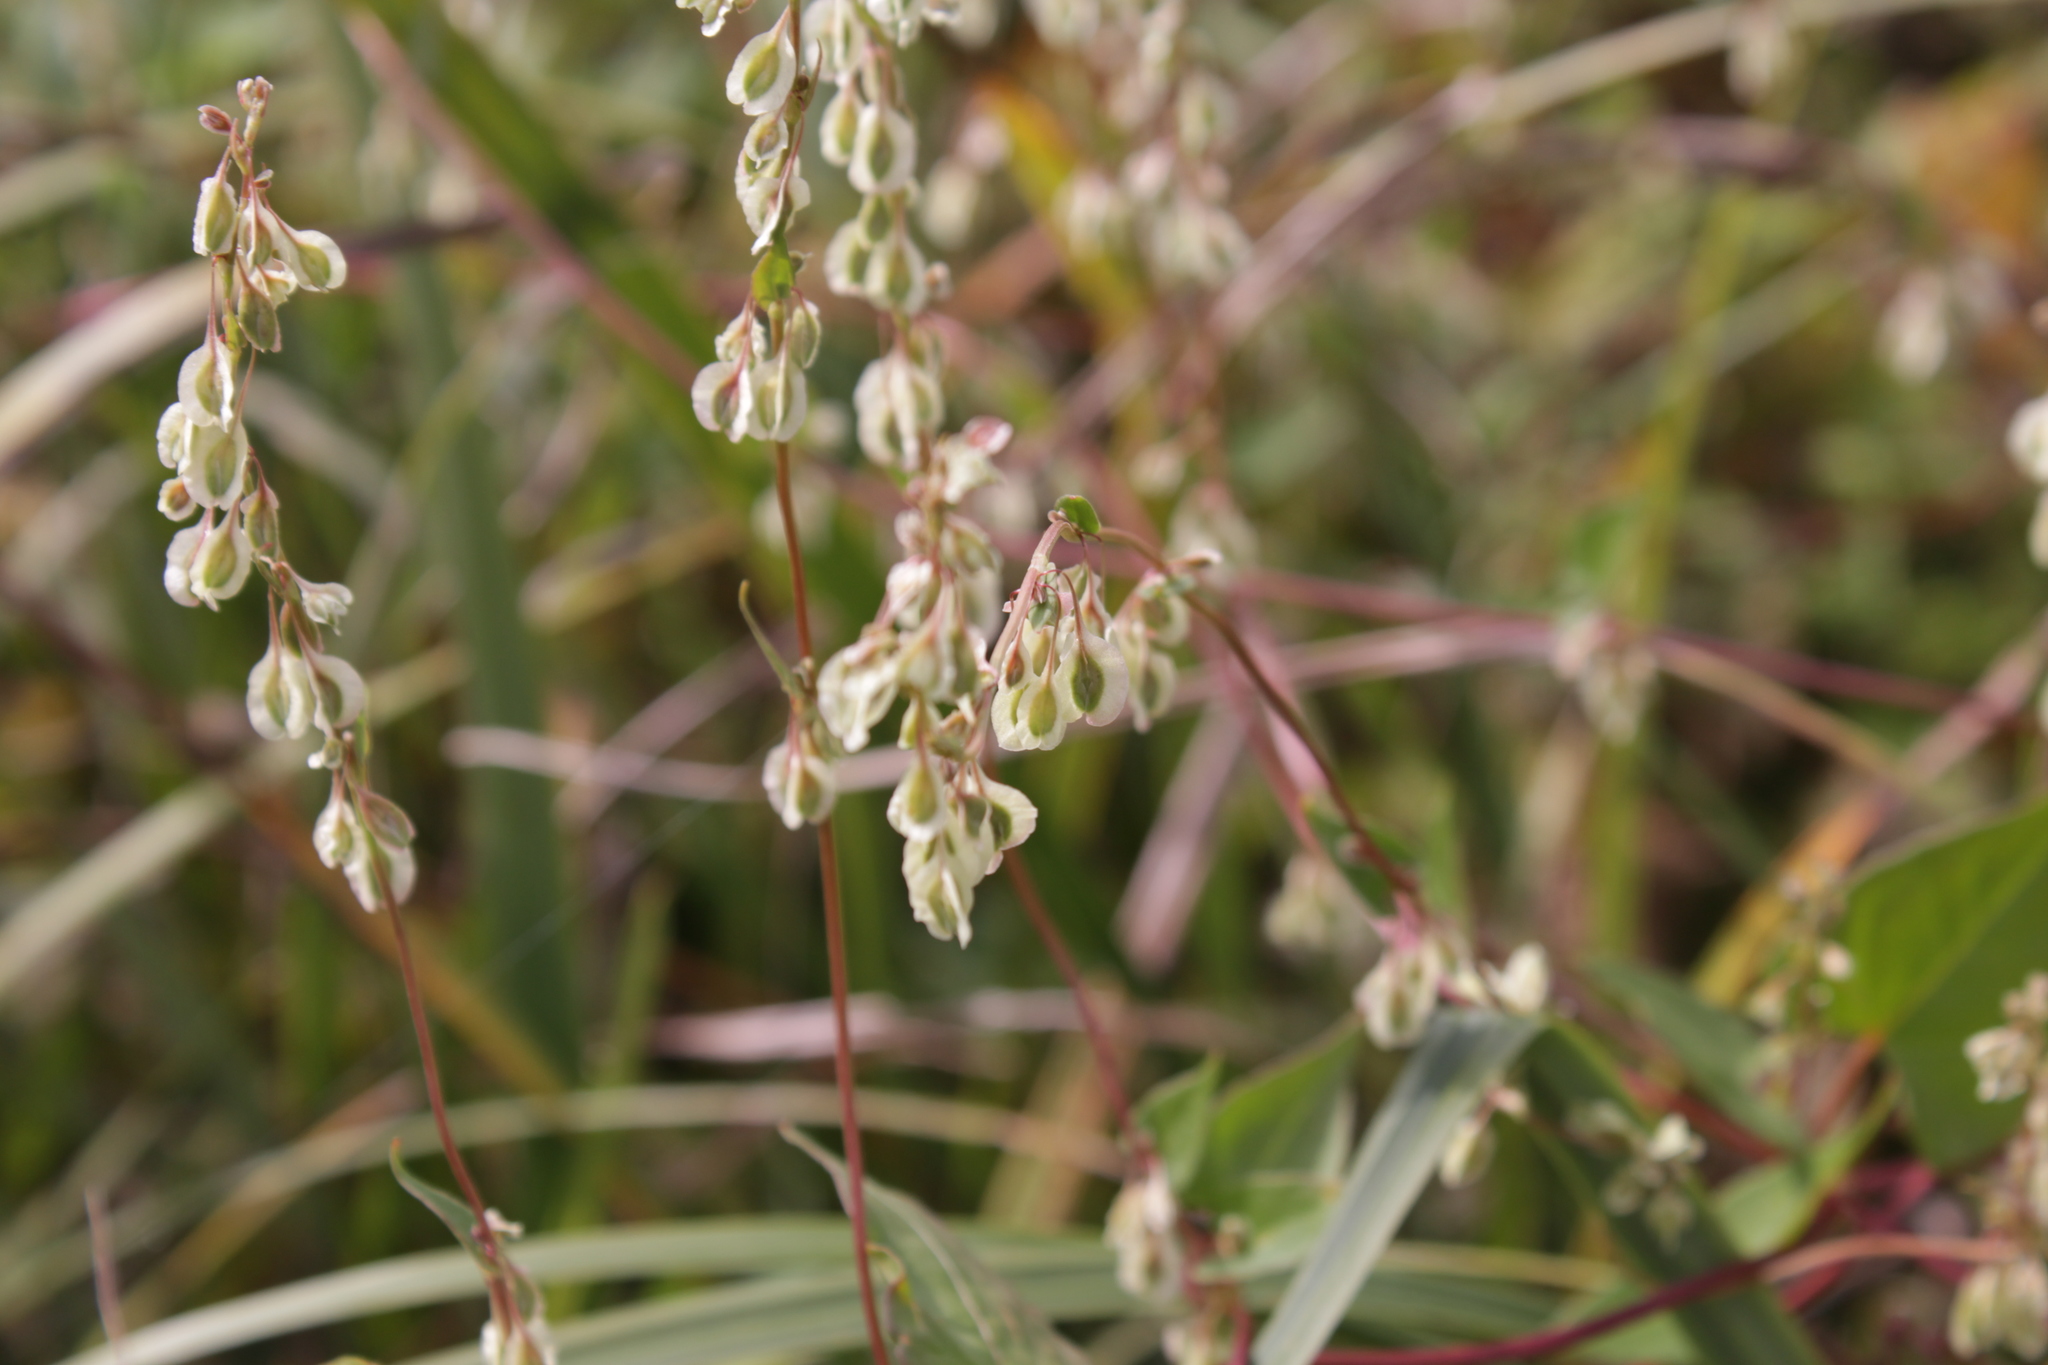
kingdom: Plantae
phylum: Tracheophyta
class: Magnoliopsida
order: Caryophyllales
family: Polygonaceae
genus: Fallopia
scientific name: Fallopia dumetorum
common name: Copse-bindweed
